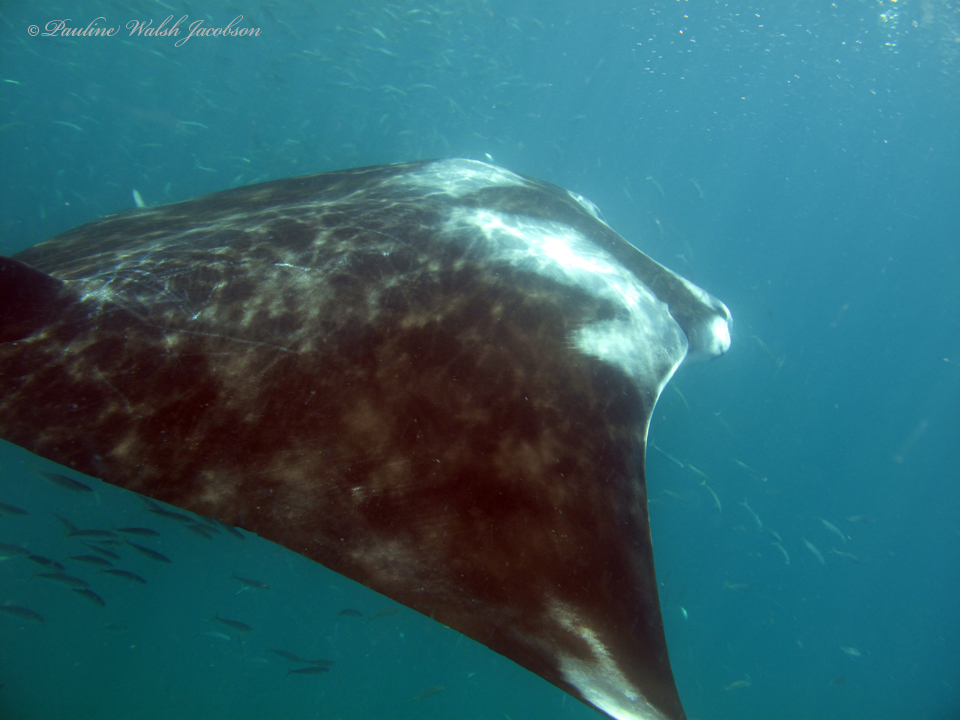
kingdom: Animalia
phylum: Chordata
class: Elasmobranchii
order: Myliobatiformes
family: Myliobatidae
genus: Mobula
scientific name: Mobula birostris
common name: Manta ray
